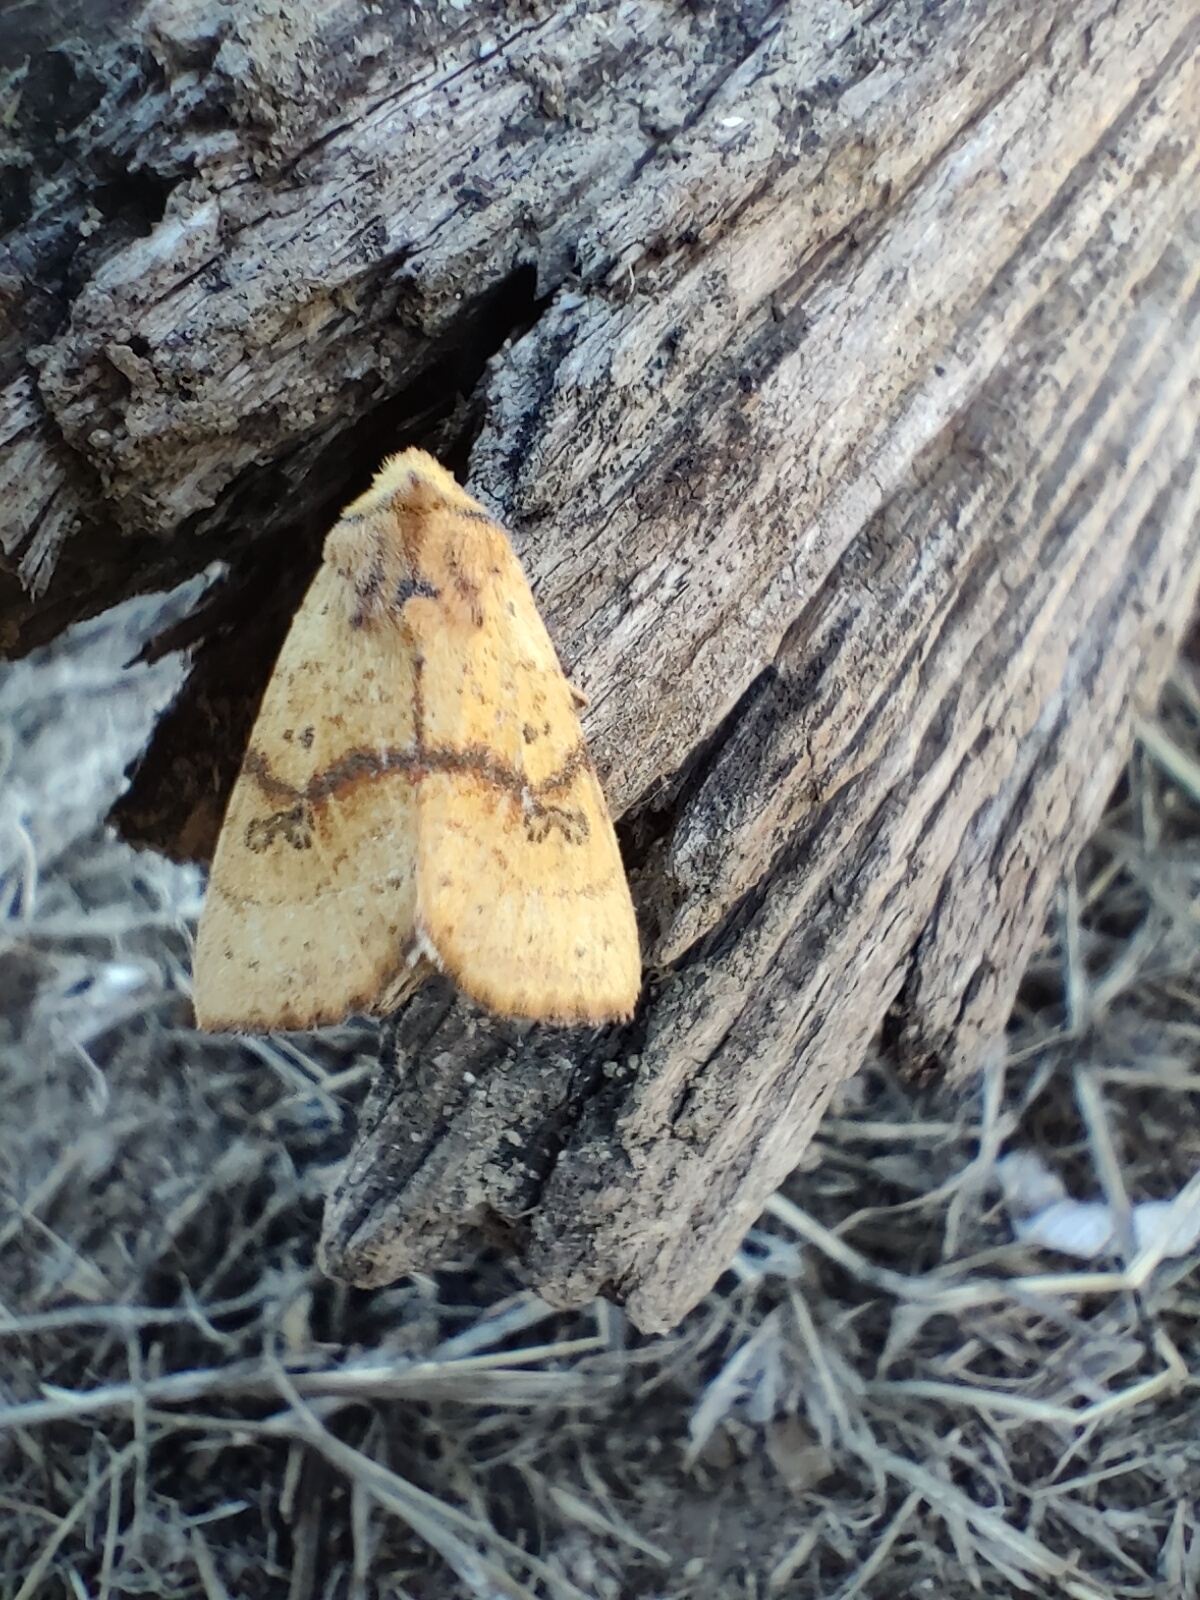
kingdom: Animalia
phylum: Arthropoda
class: Insecta
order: Lepidoptera
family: Noctuidae
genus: Tiliacea
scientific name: Tiliacea sulphurago
